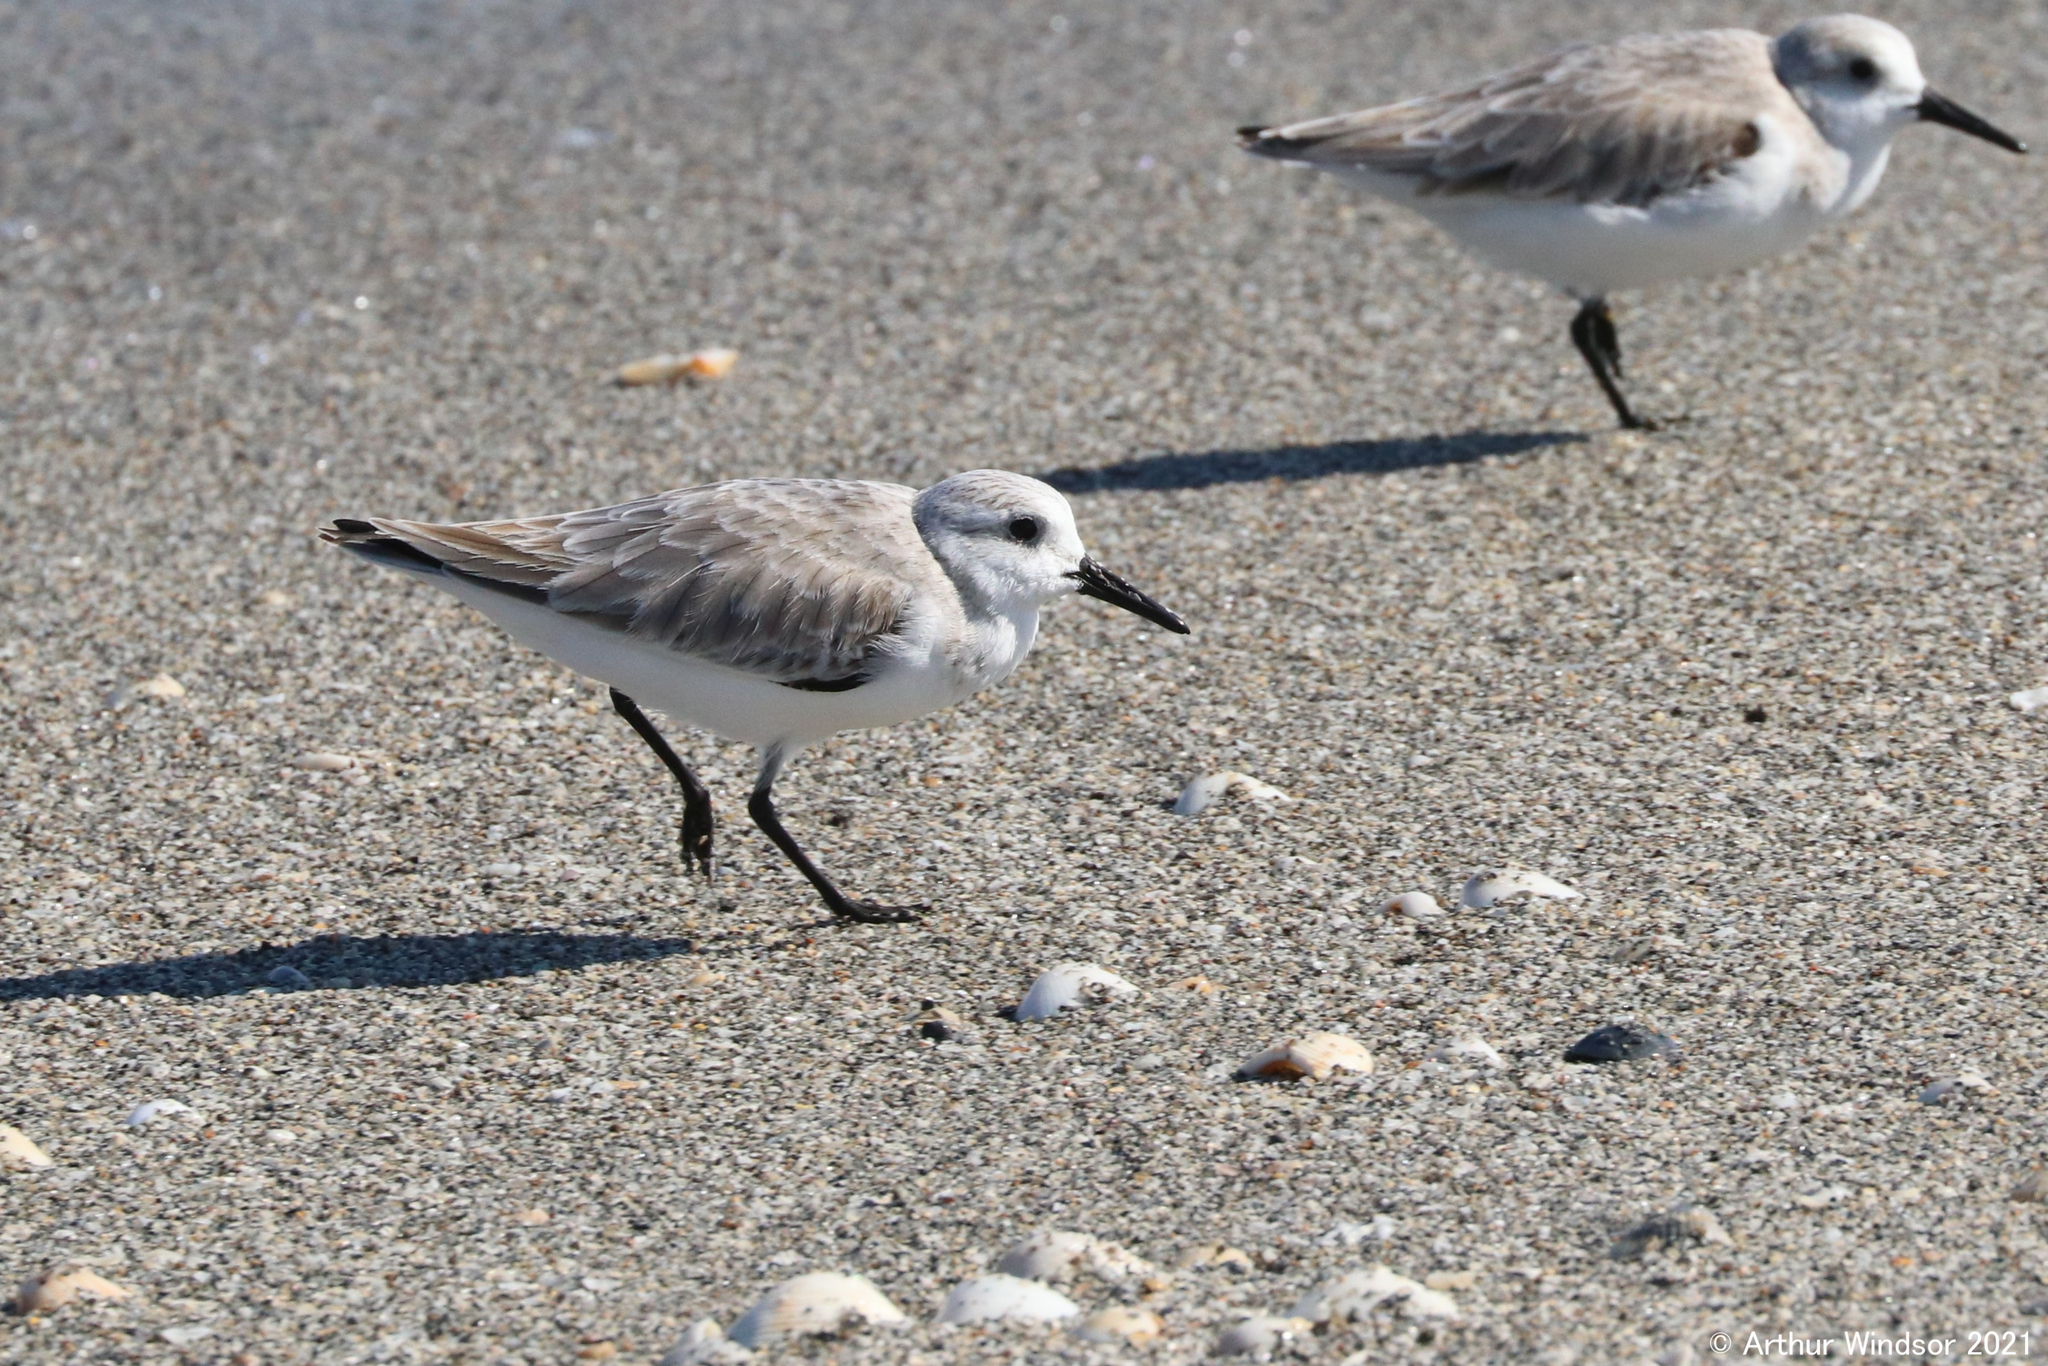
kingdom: Animalia
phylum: Chordata
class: Aves
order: Charadriiformes
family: Scolopacidae
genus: Calidris
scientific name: Calidris alba
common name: Sanderling
